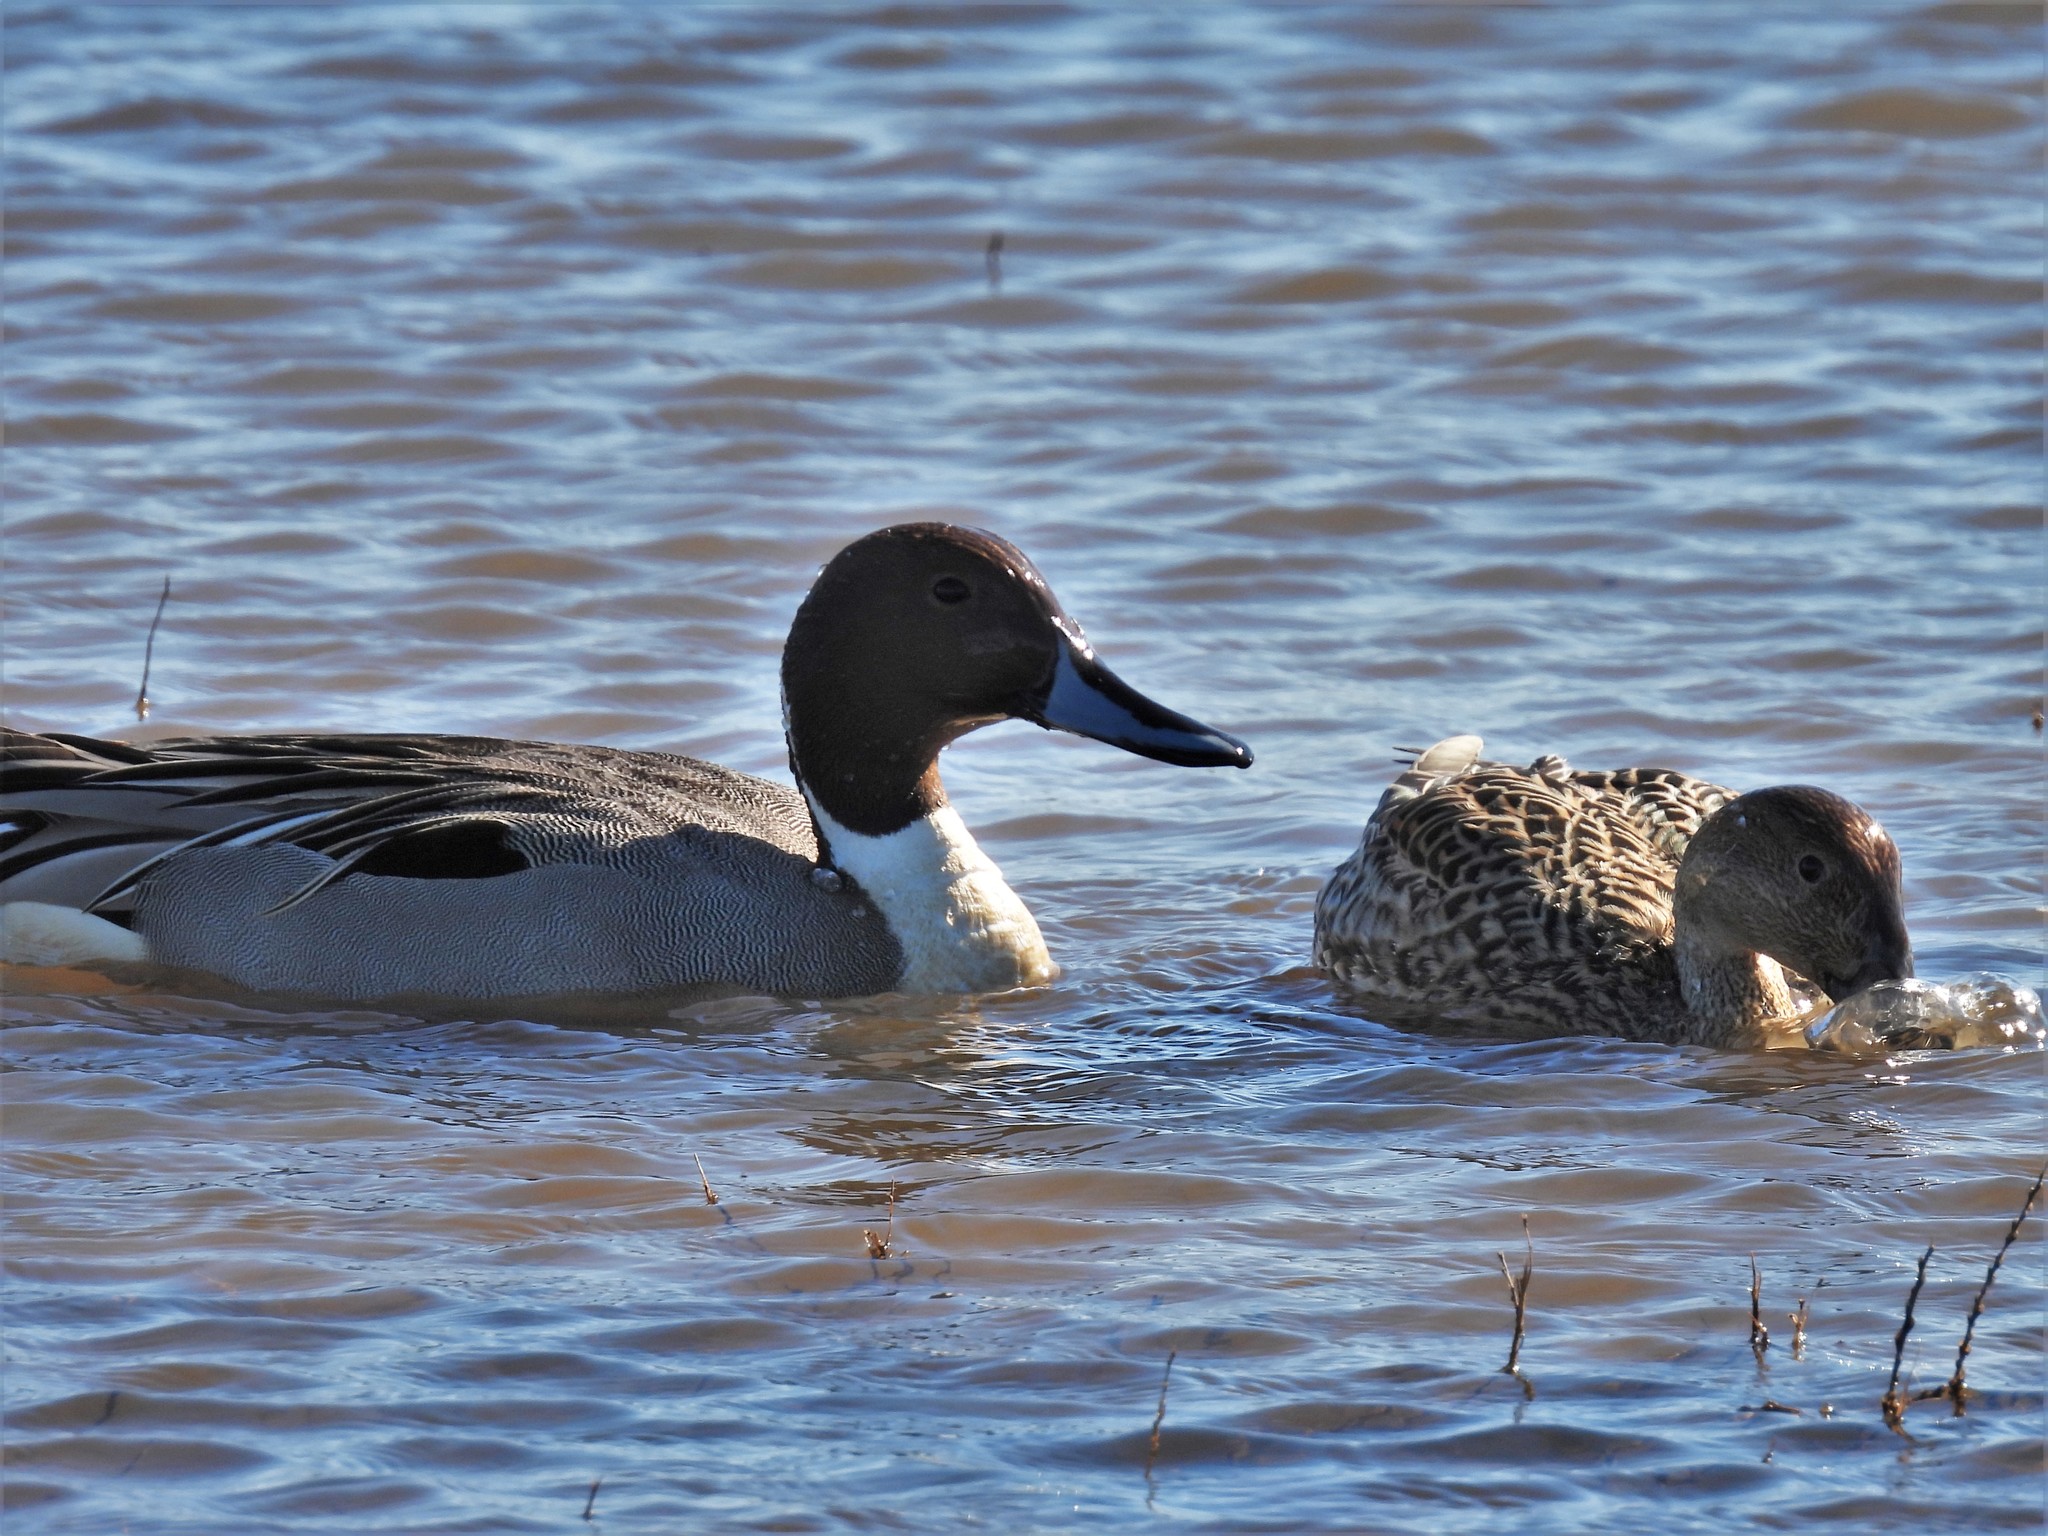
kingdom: Animalia
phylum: Chordata
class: Aves
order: Anseriformes
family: Anatidae
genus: Anas
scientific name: Anas acuta
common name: Northern pintail
